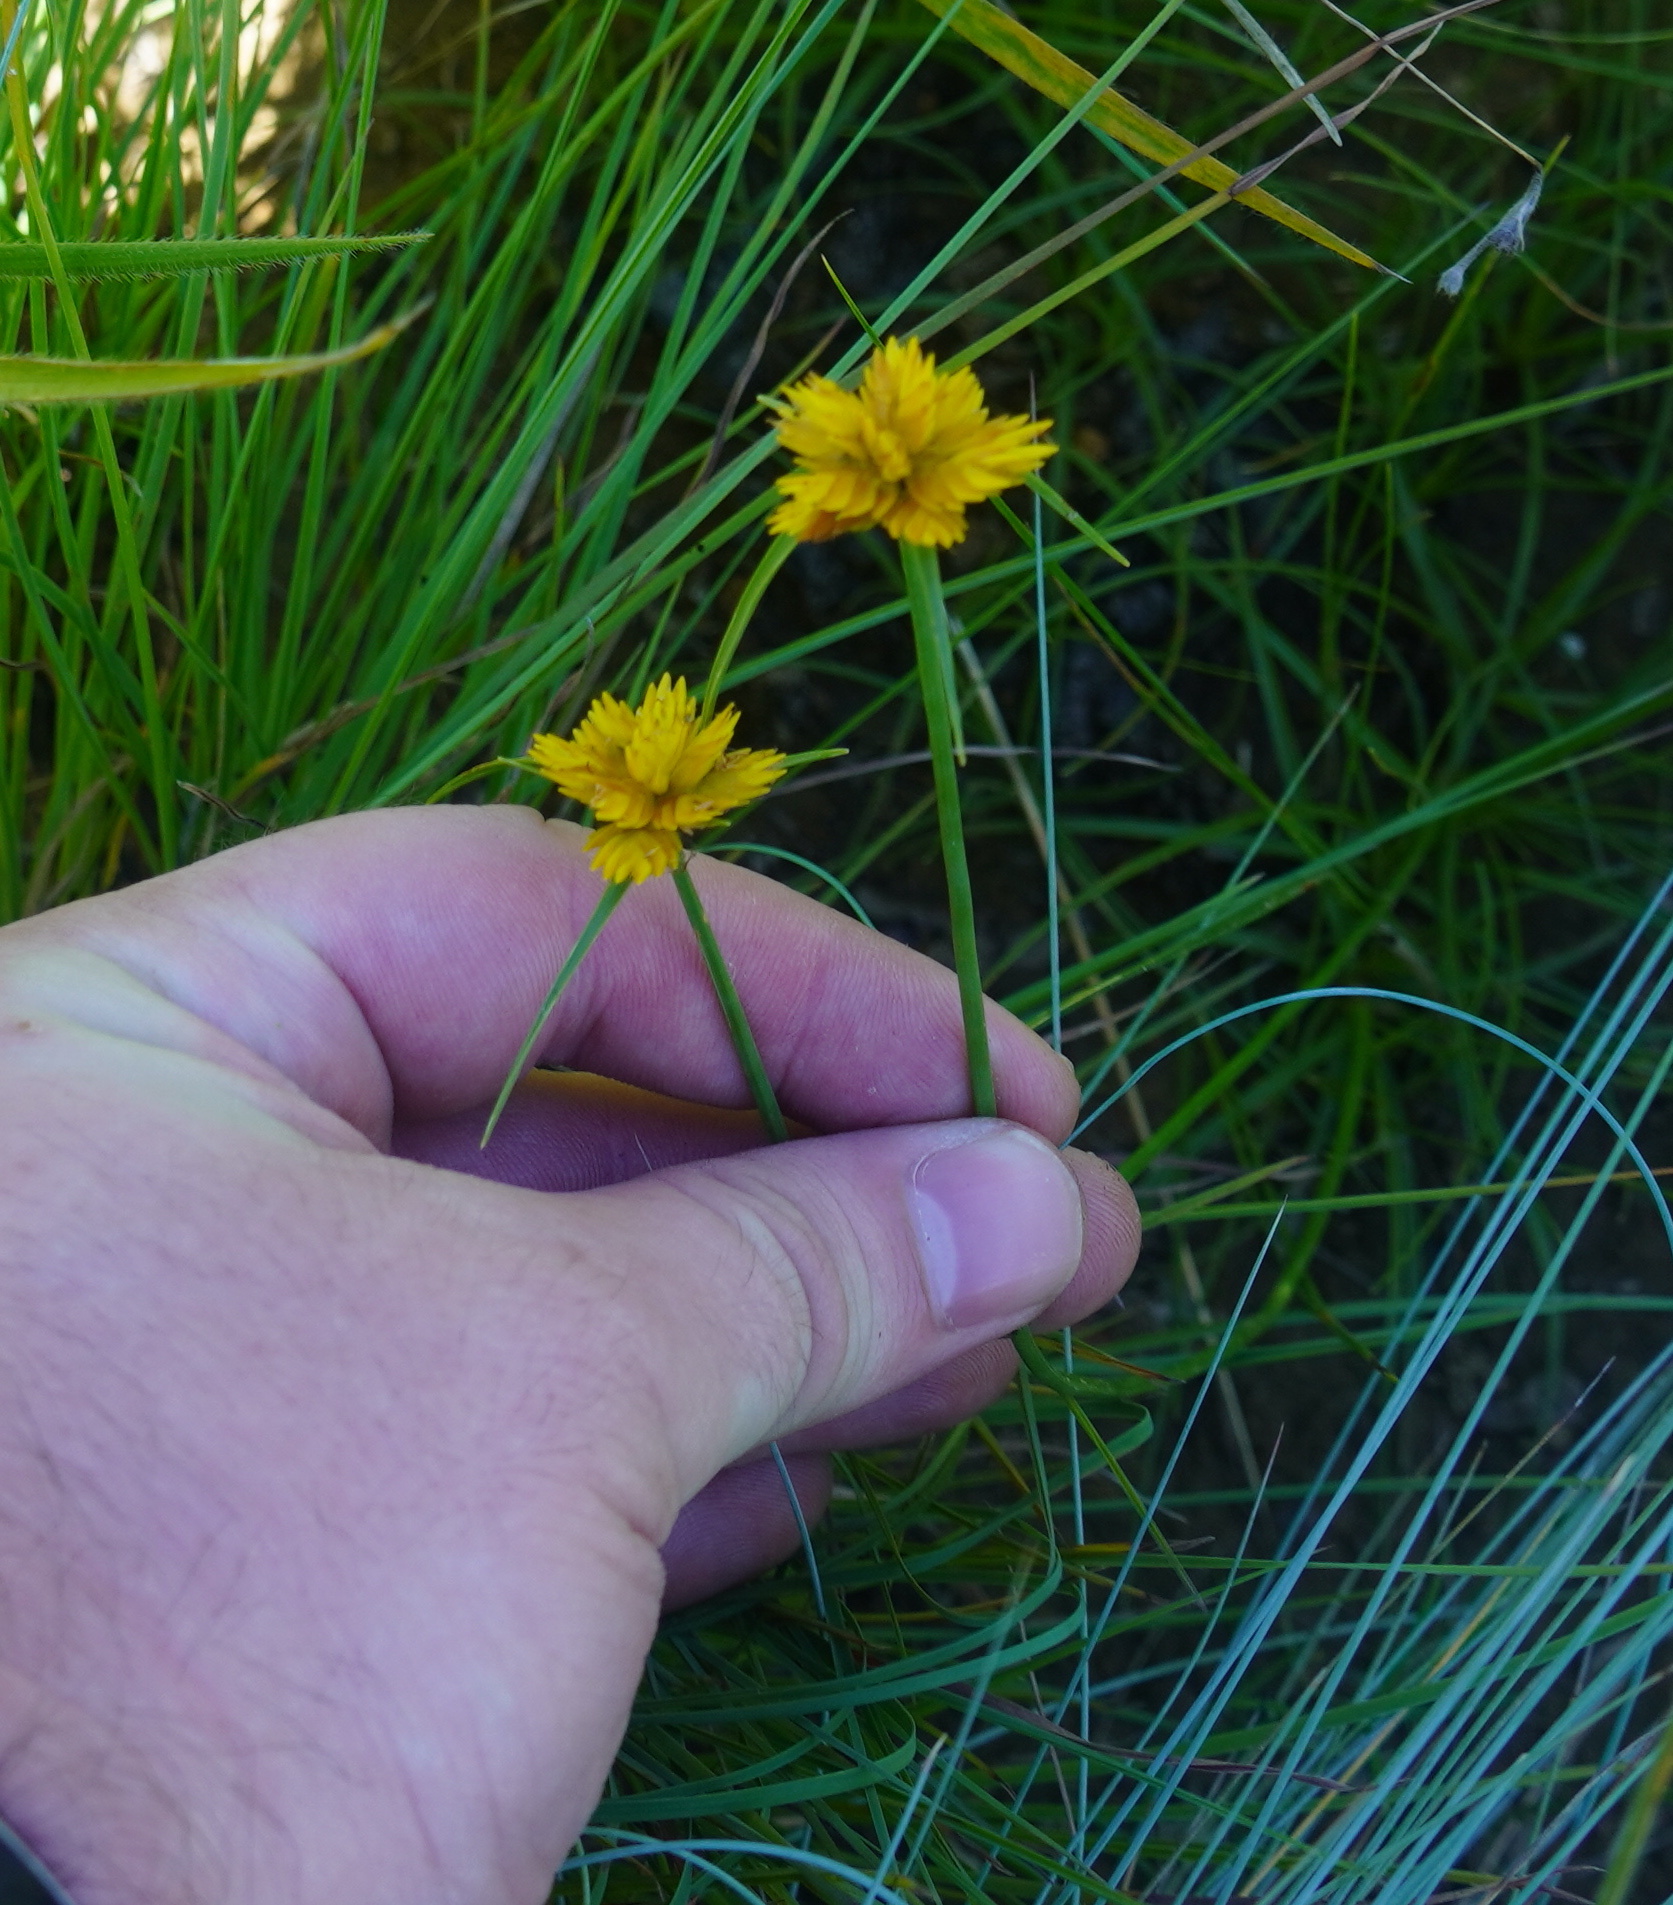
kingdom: Plantae
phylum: Tracheophyta
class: Liliopsida
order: Poales
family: Cyperaceae
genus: Cyperus
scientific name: Cyperus sphaerocephalus
